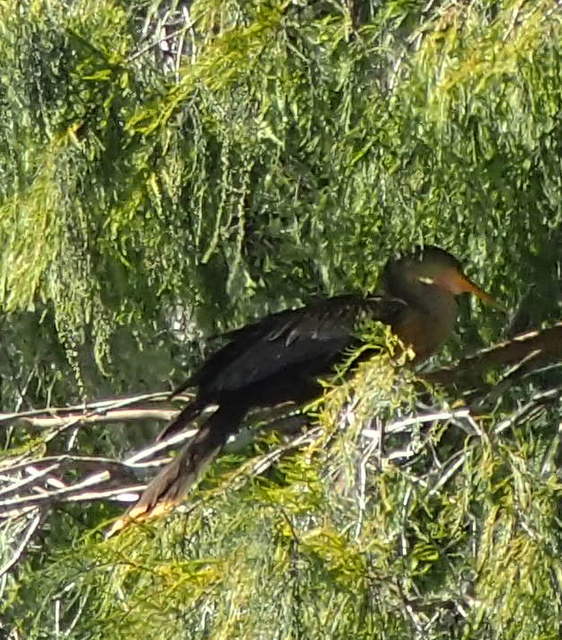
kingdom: Animalia
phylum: Chordata
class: Aves
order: Suliformes
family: Anhingidae
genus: Anhinga
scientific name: Anhinga anhinga
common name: Anhinga
